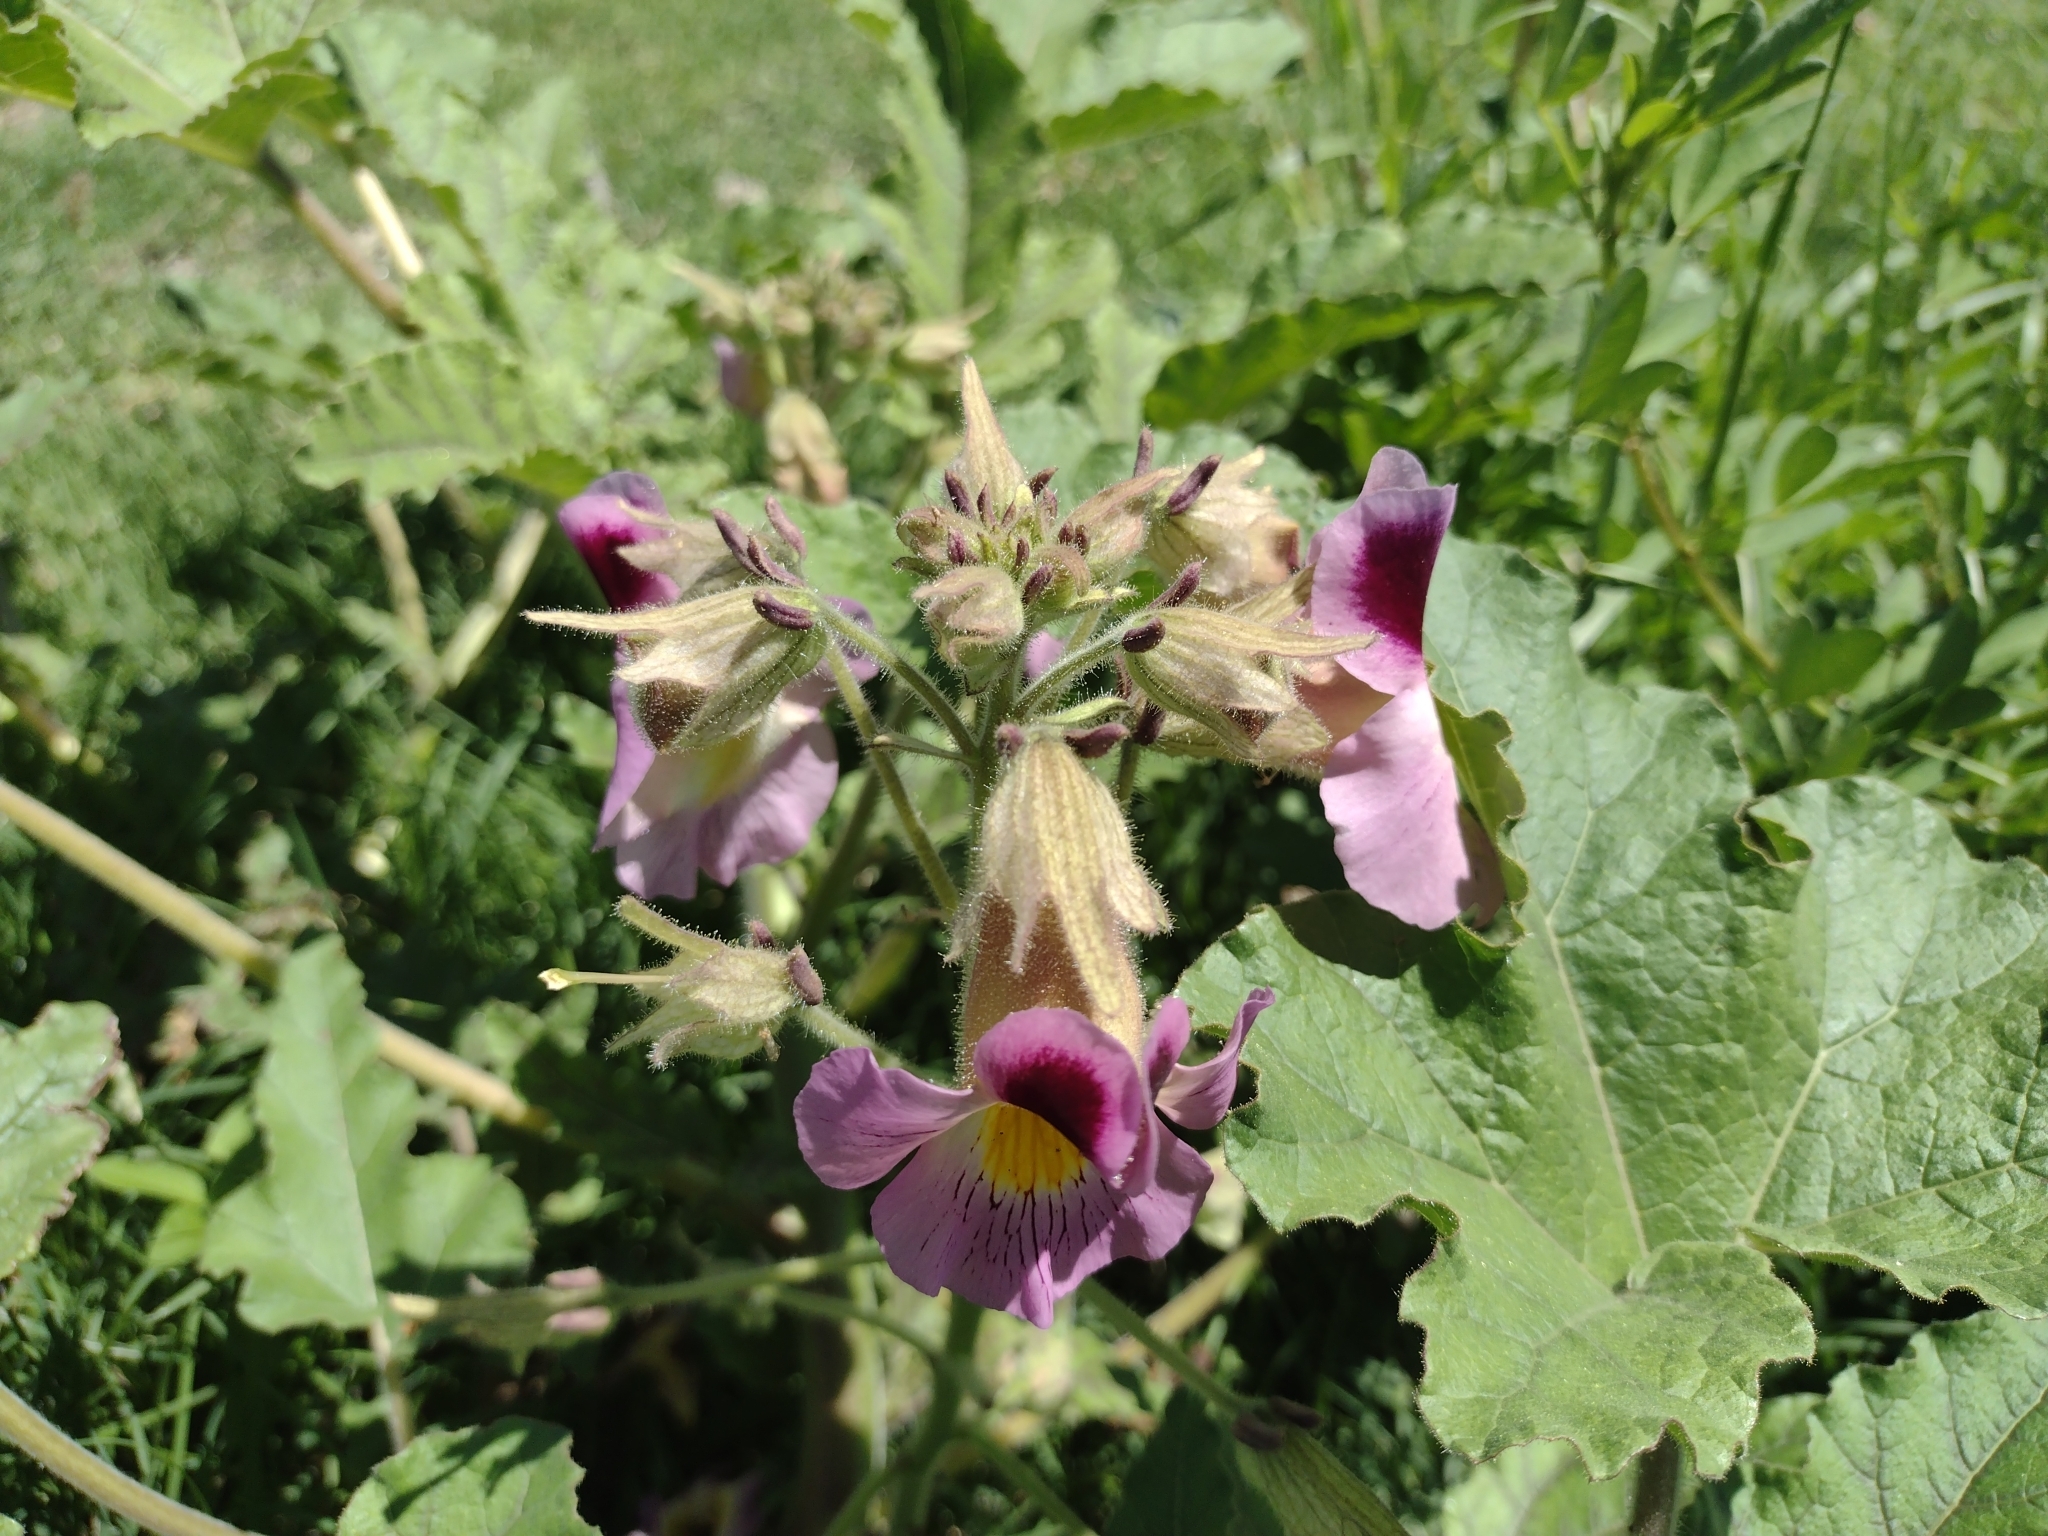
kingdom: Plantae
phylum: Tracheophyta
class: Magnoliopsida
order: Lamiales
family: Martyniaceae
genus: Proboscidea
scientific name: Proboscidea parviflora
